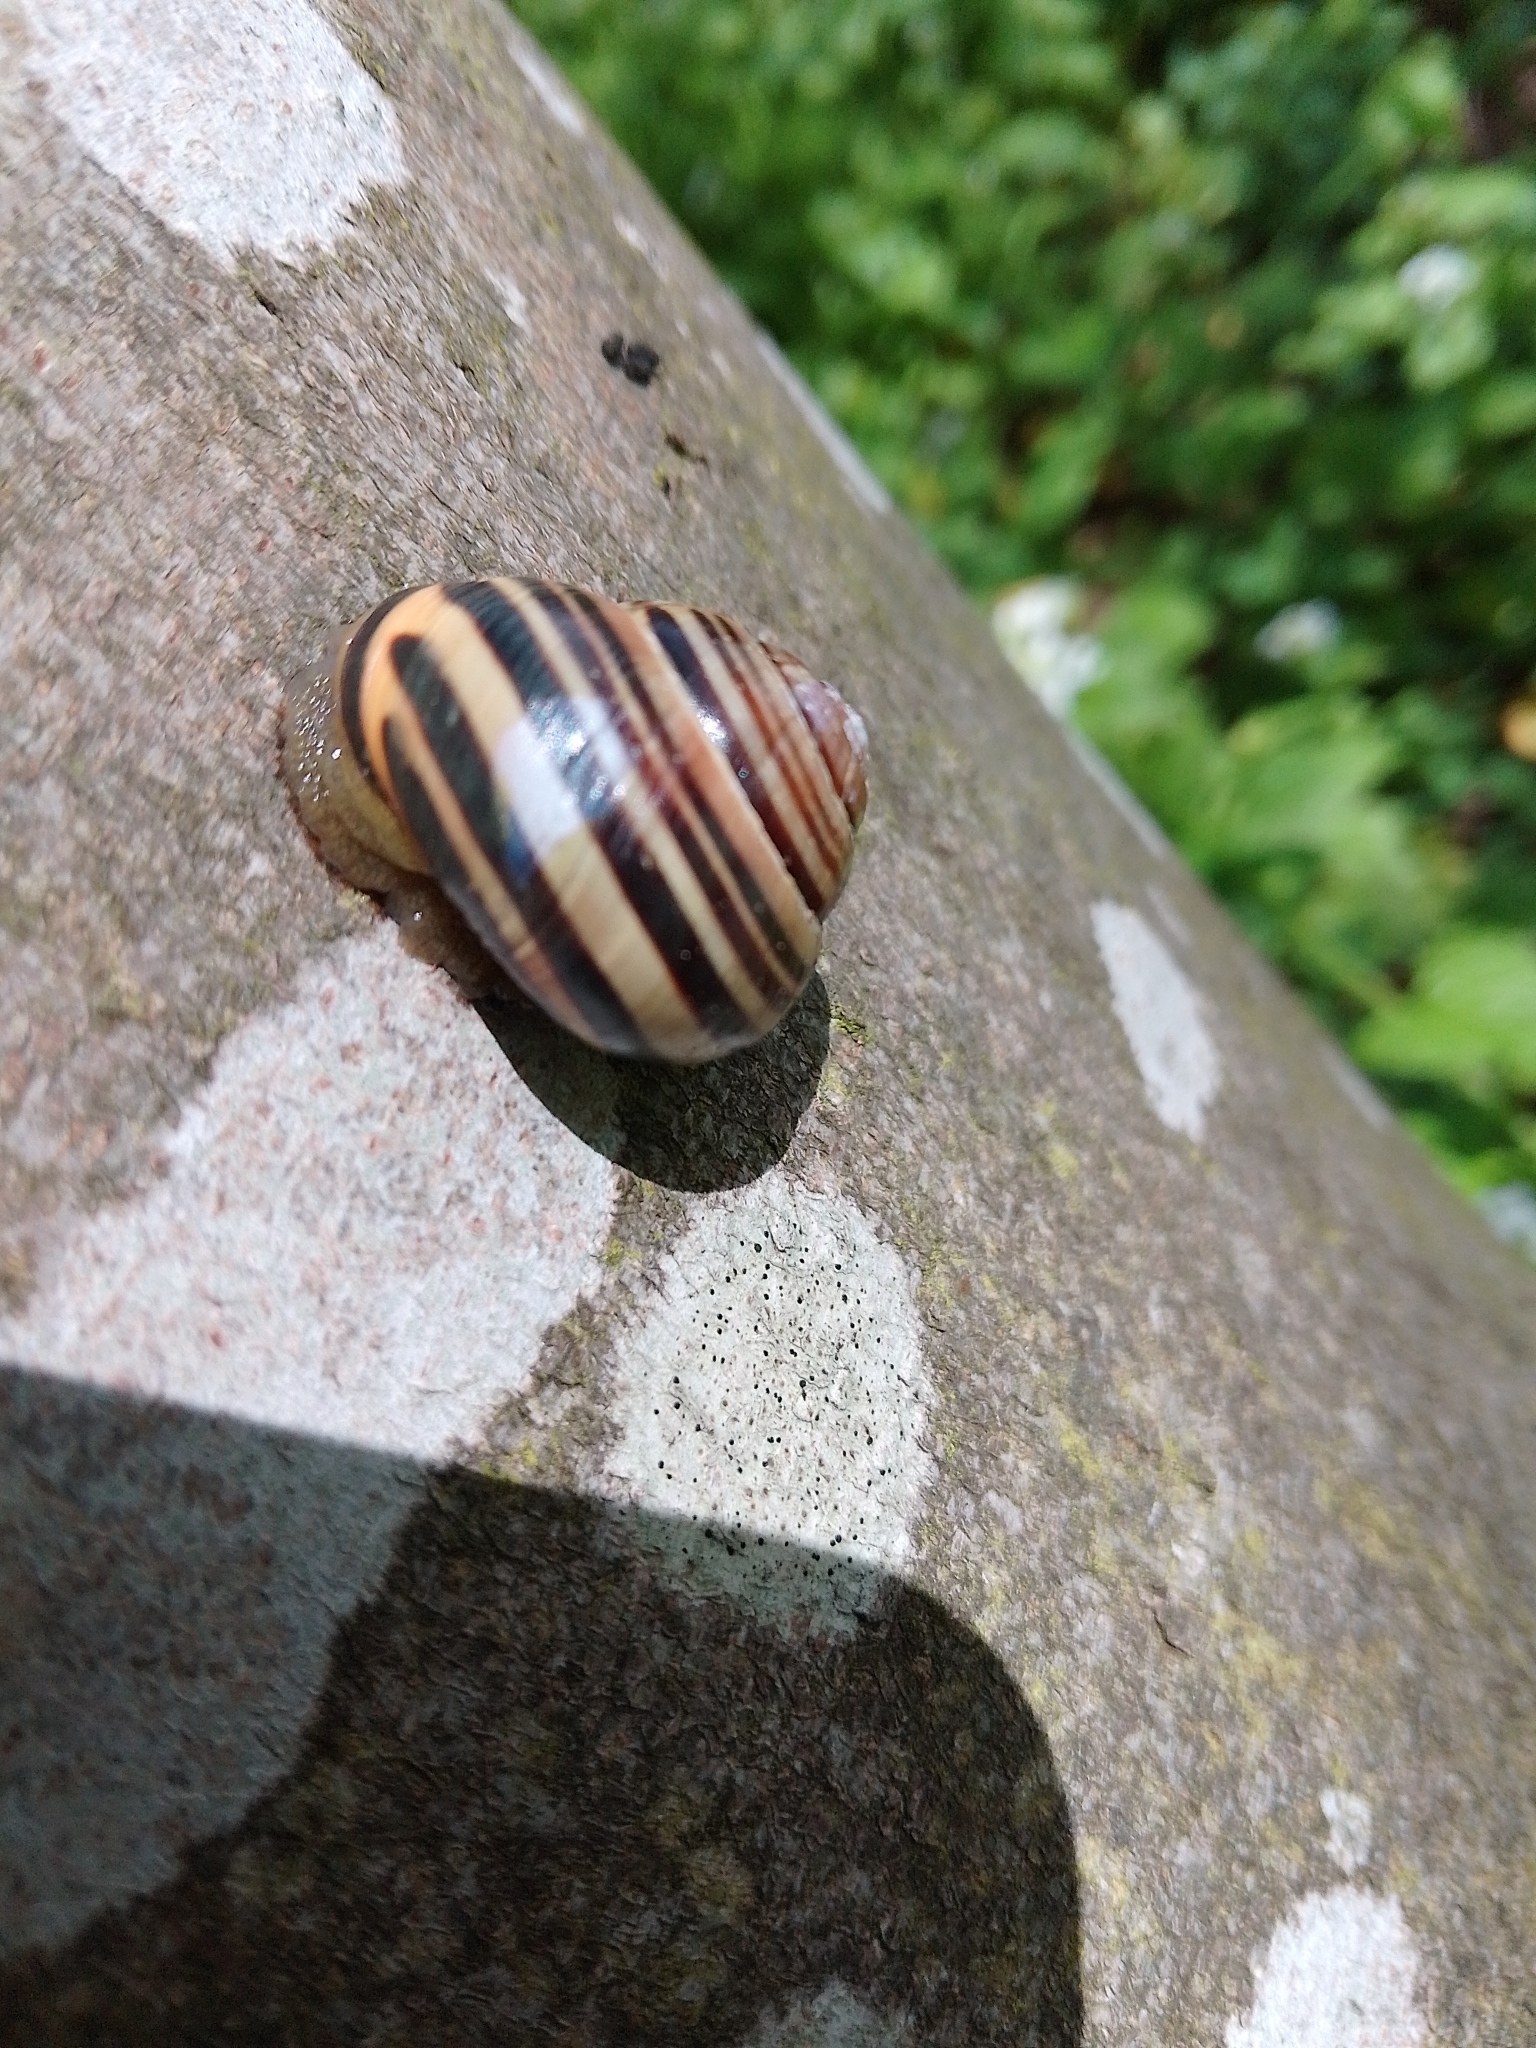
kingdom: Animalia
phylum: Mollusca
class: Gastropoda
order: Stylommatophora
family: Helicidae
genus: Cepaea
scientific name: Cepaea nemoralis
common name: Grovesnail
